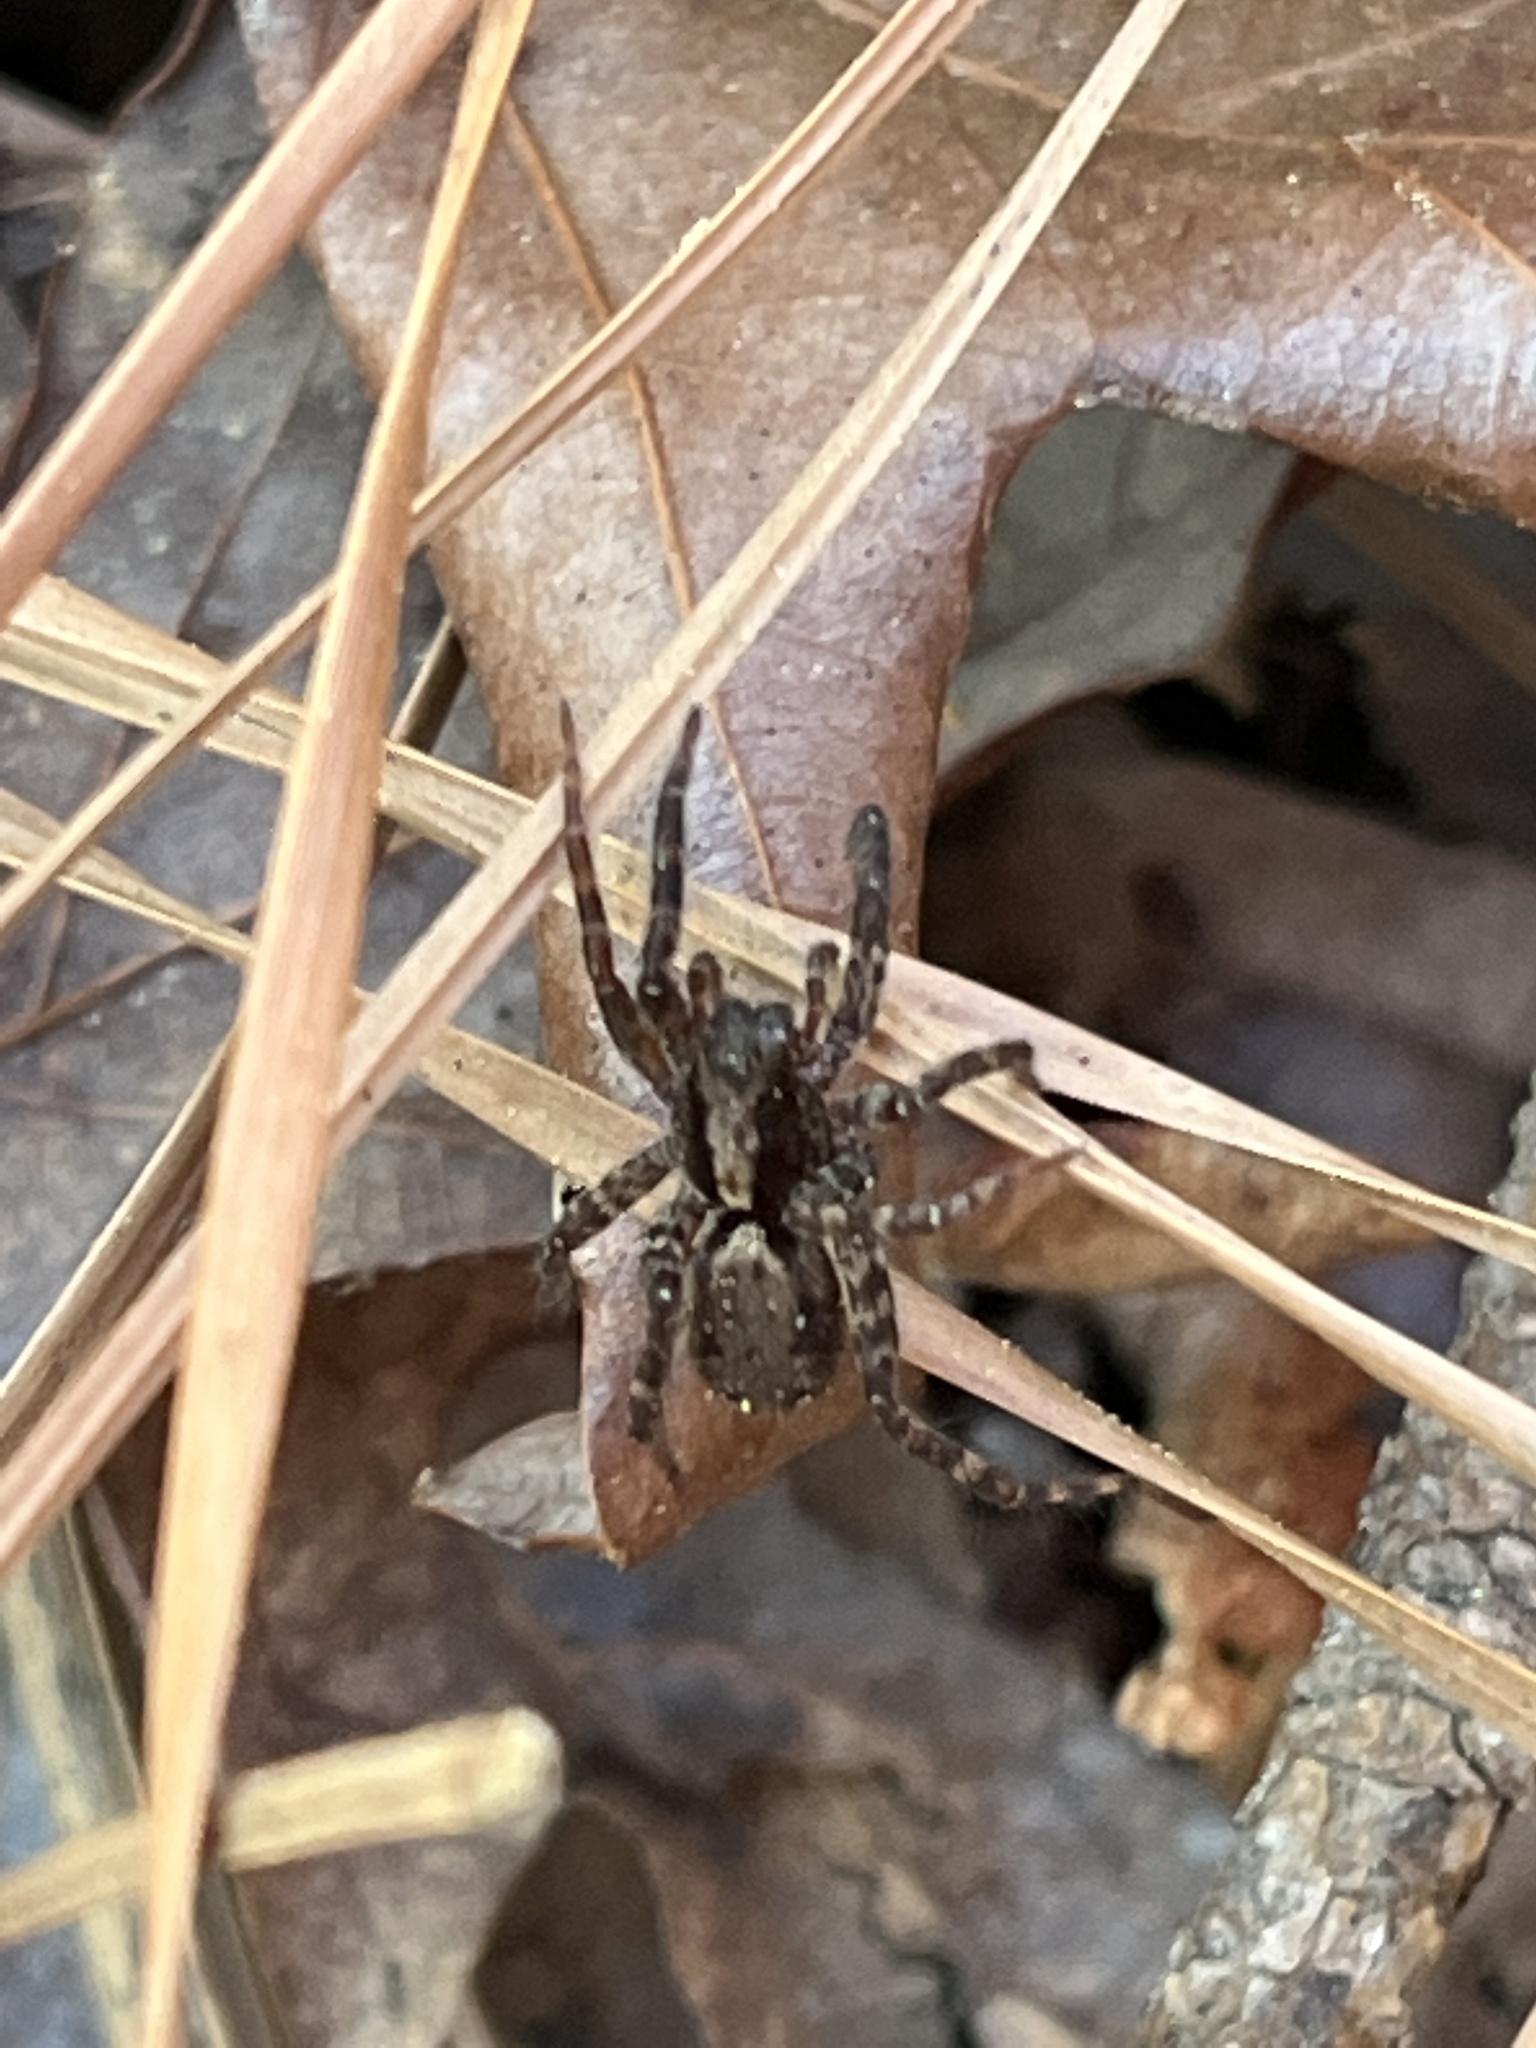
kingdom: Animalia
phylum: Arthropoda
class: Arachnida
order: Araneae
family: Lycosidae
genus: Gladicosa
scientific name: Gladicosa gulosa
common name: Drumming sword wolf spider
